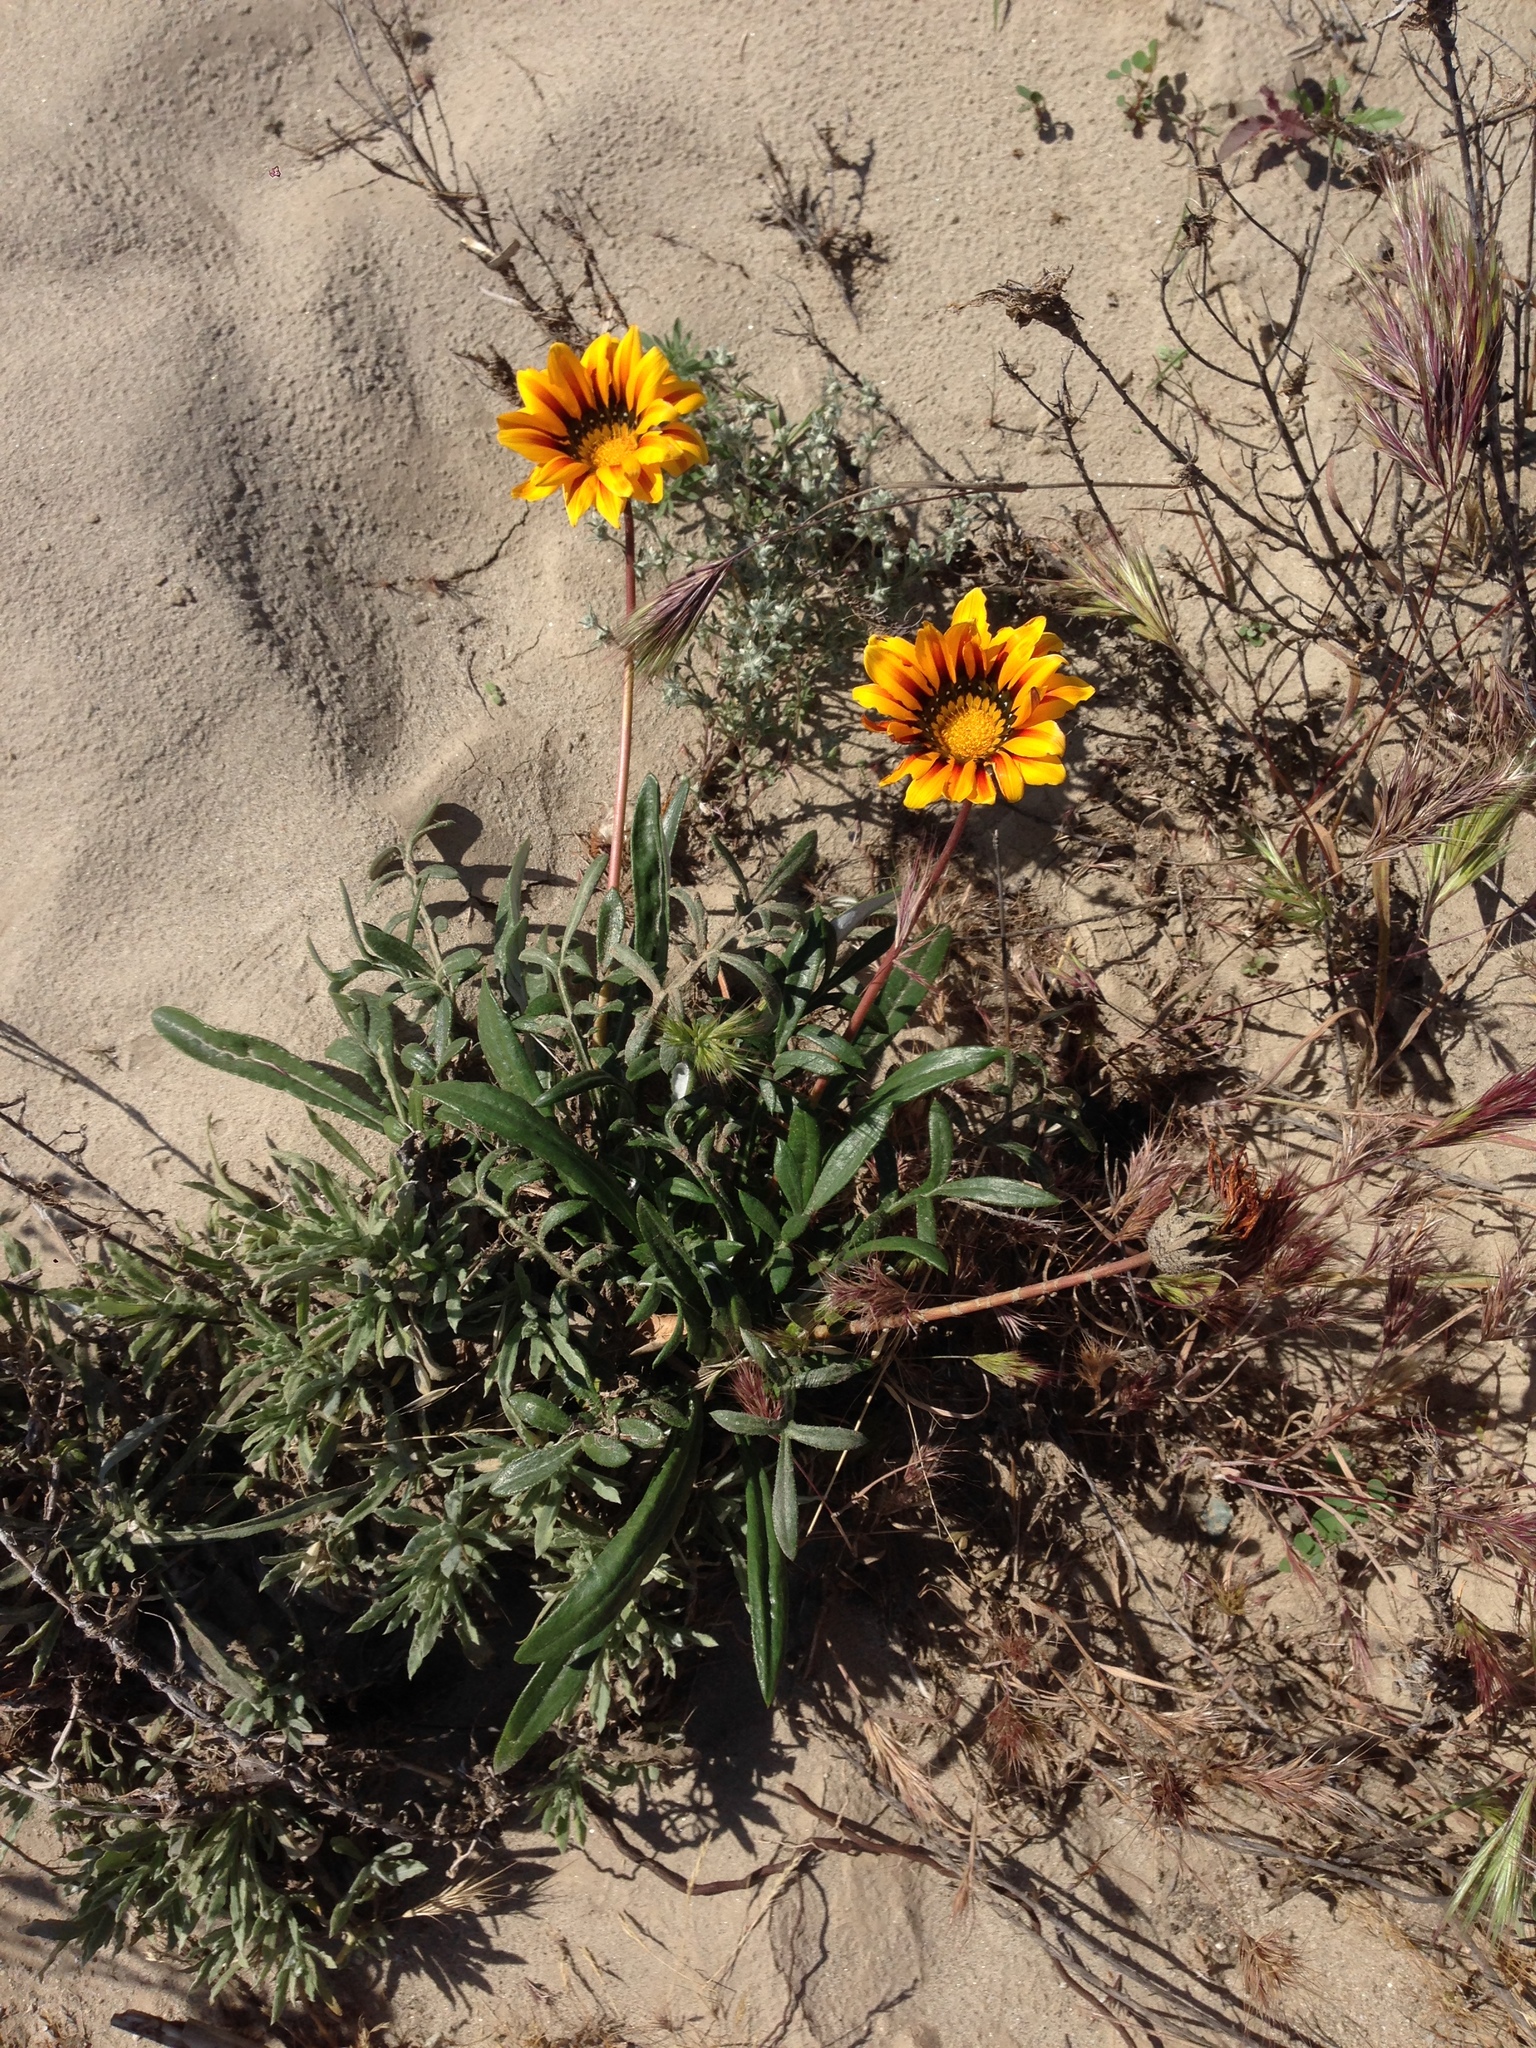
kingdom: Plantae
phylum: Tracheophyta
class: Magnoliopsida
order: Asterales
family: Asteraceae
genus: Gazania
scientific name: Gazania linearis
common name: Treasureflower
